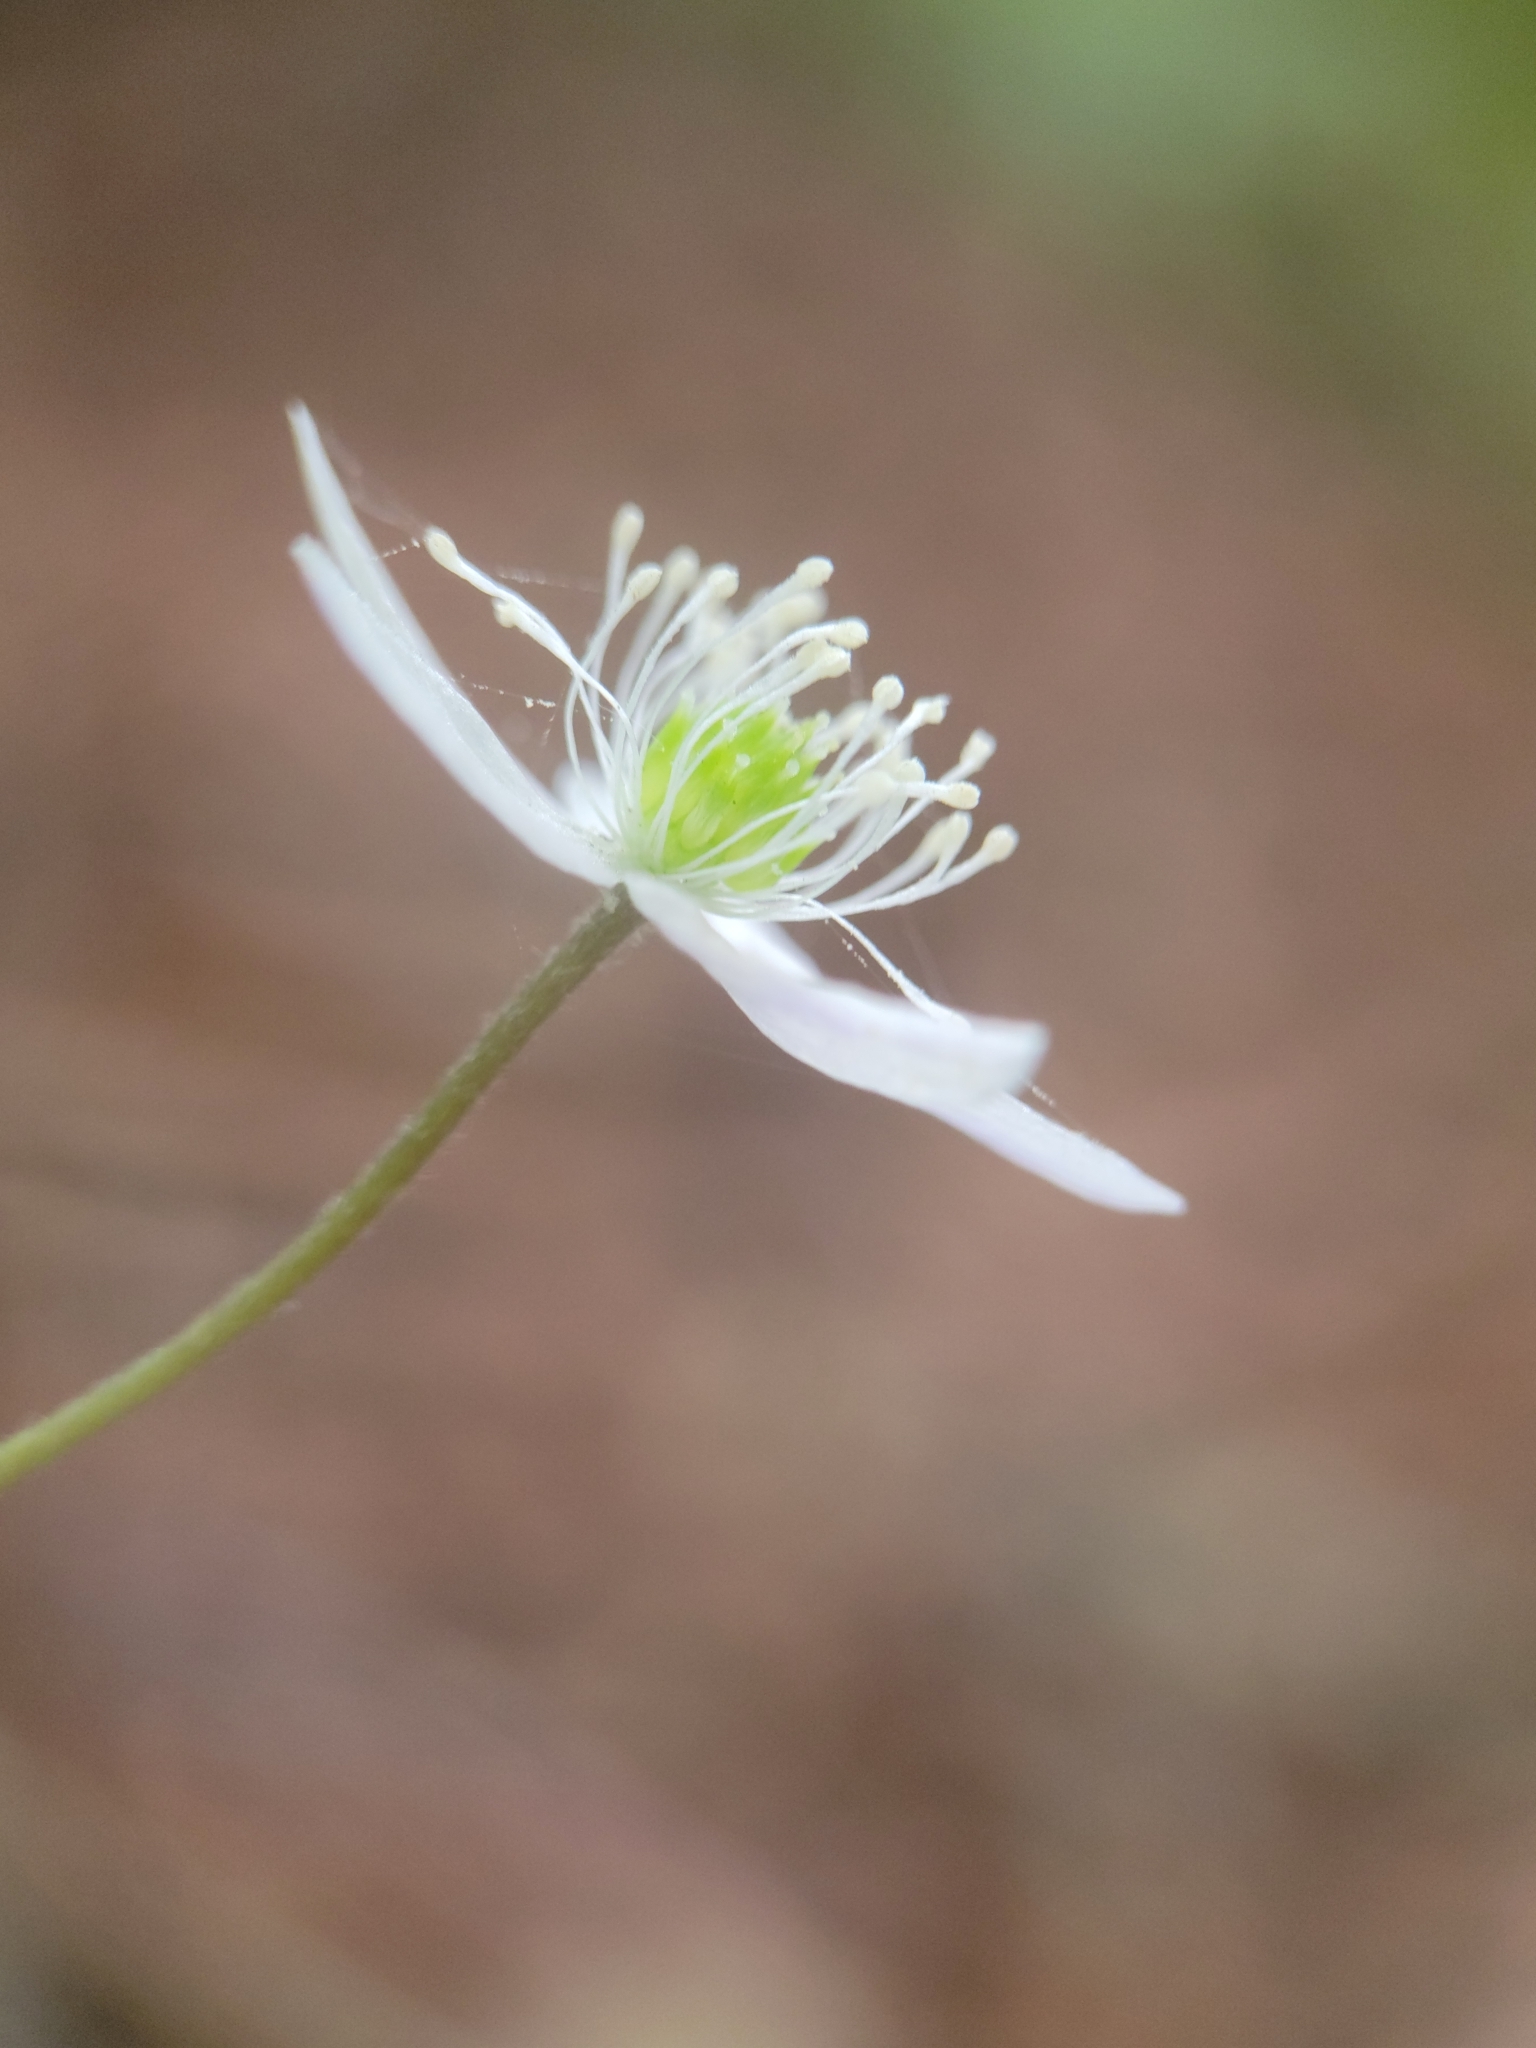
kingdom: Plantae
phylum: Tracheophyta
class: Magnoliopsida
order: Ranunculales
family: Ranunculaceae
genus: Anemone
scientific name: Anemone
